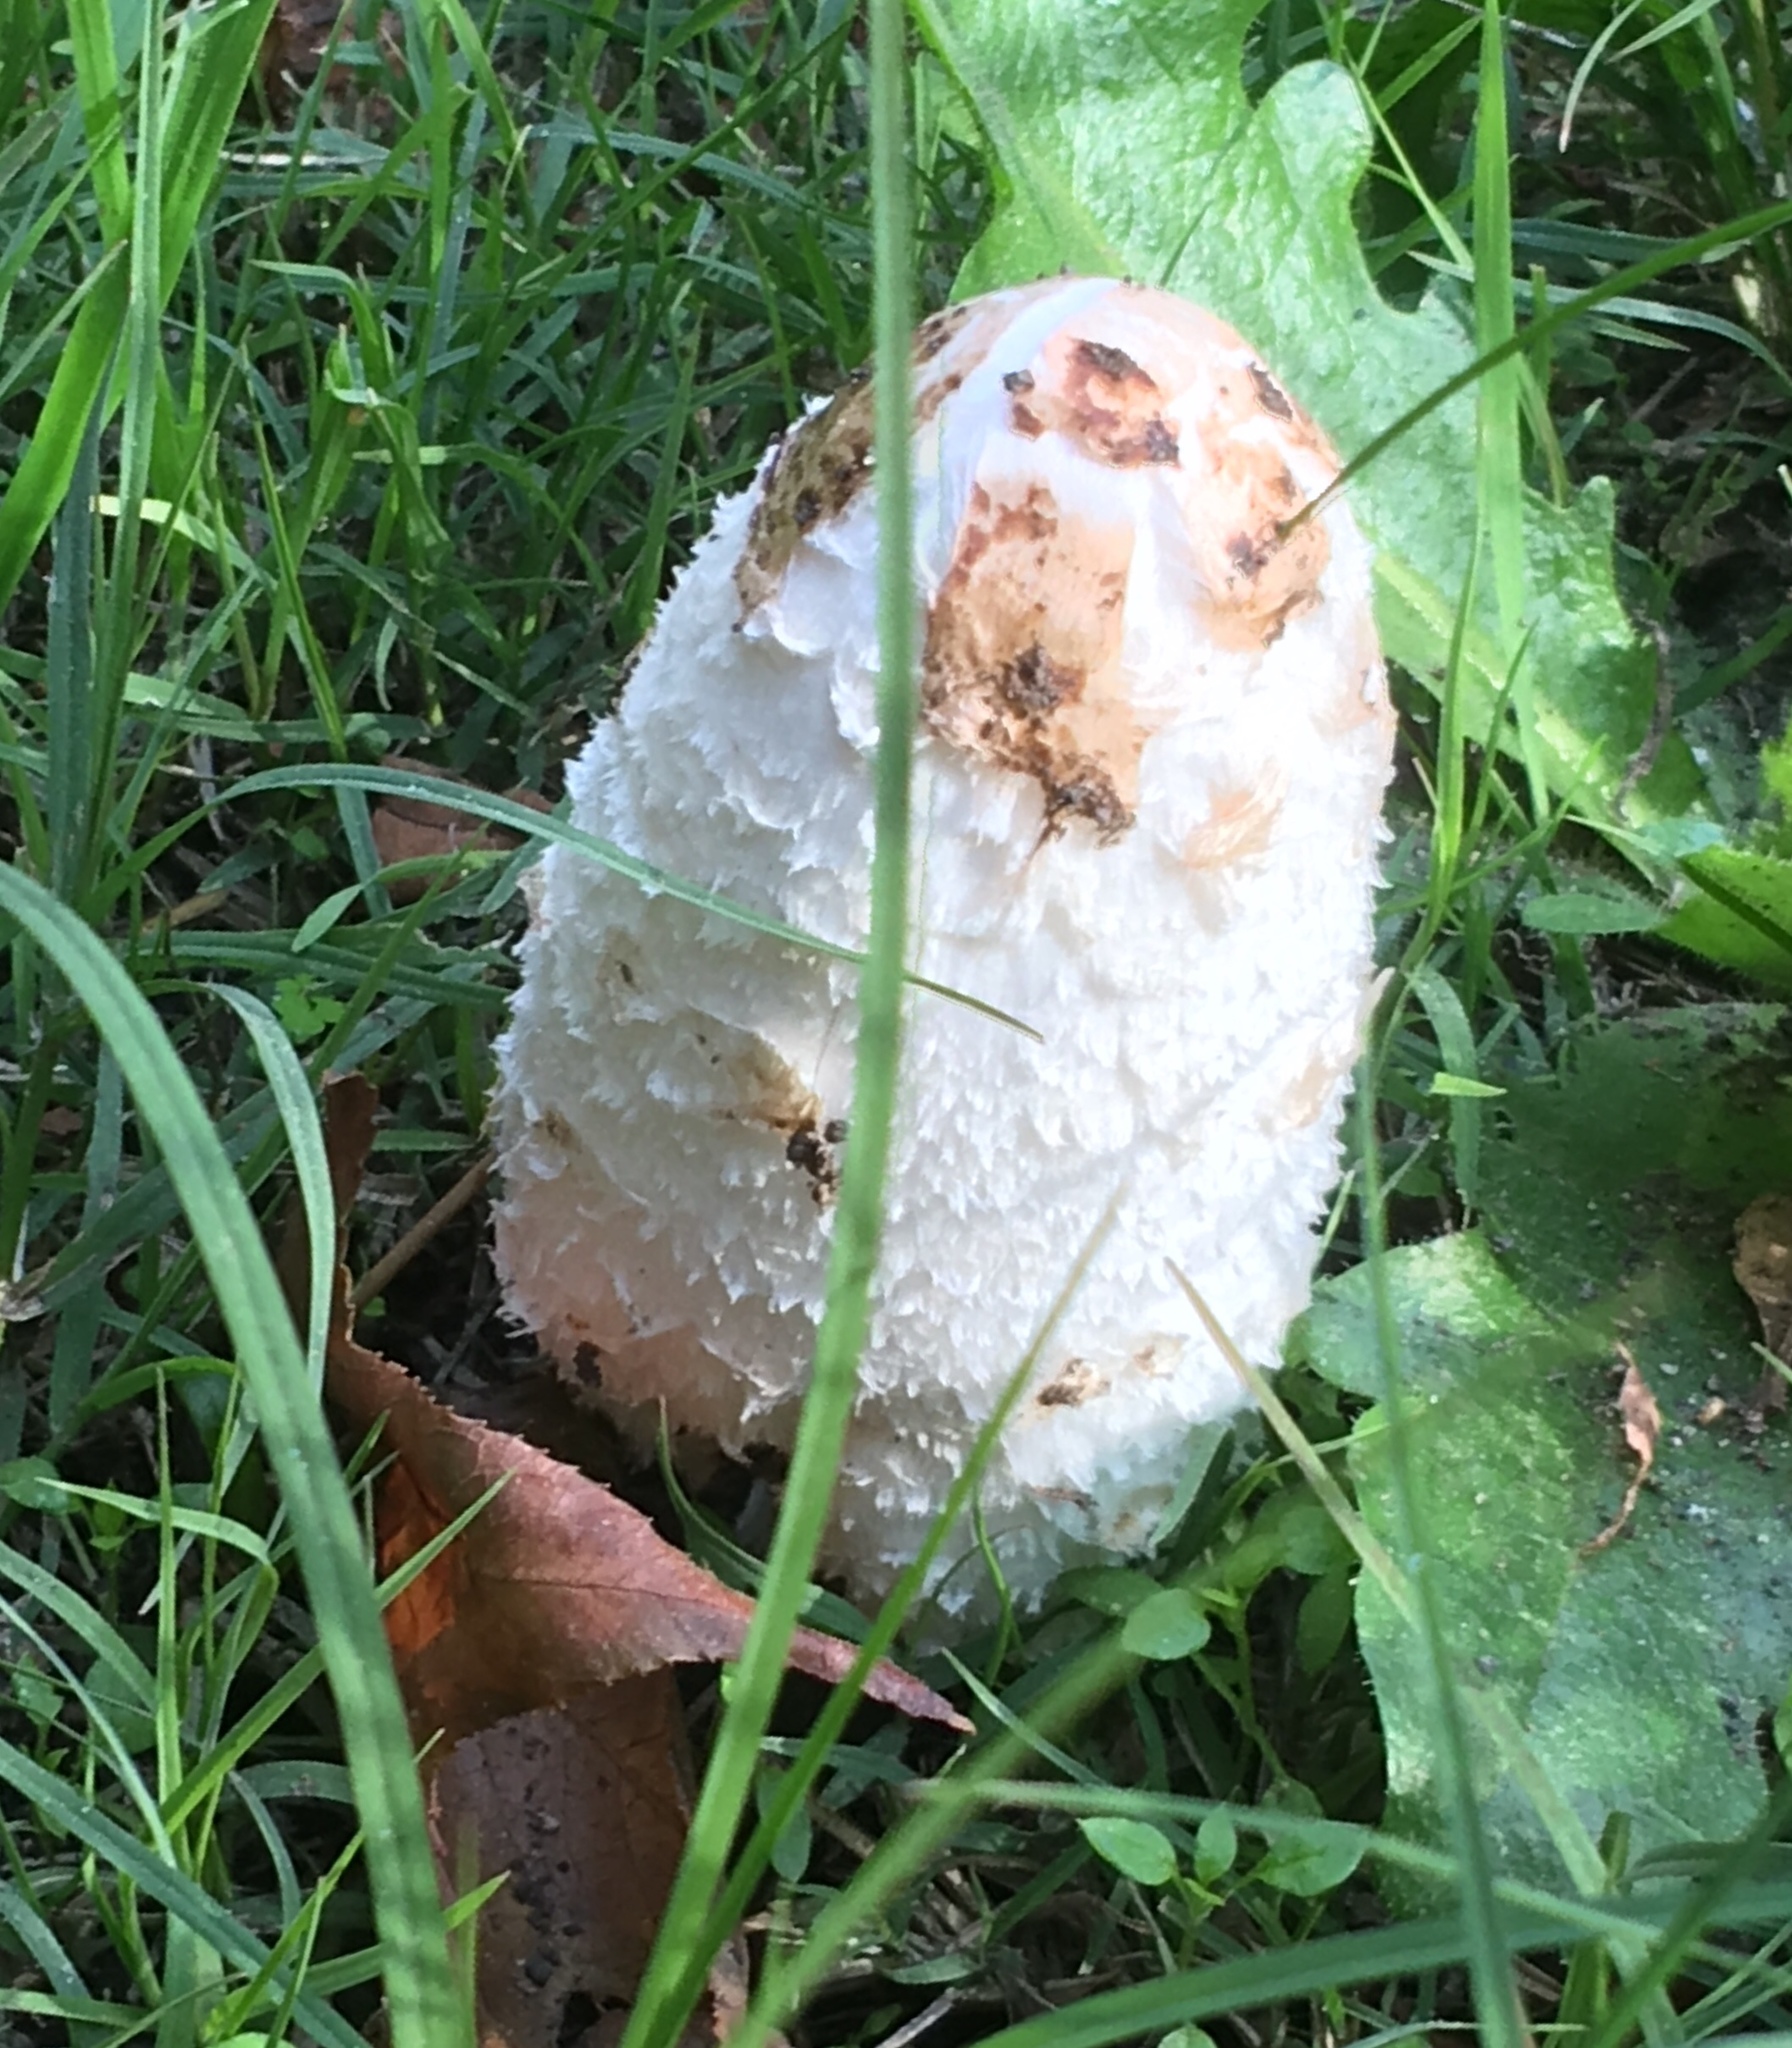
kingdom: Fungi
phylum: Basidiomycota
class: Agaricomycetes
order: Agaricales
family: Agaricaceae
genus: Coprinus
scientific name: Coprinus comatus
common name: Lawyer's wig
